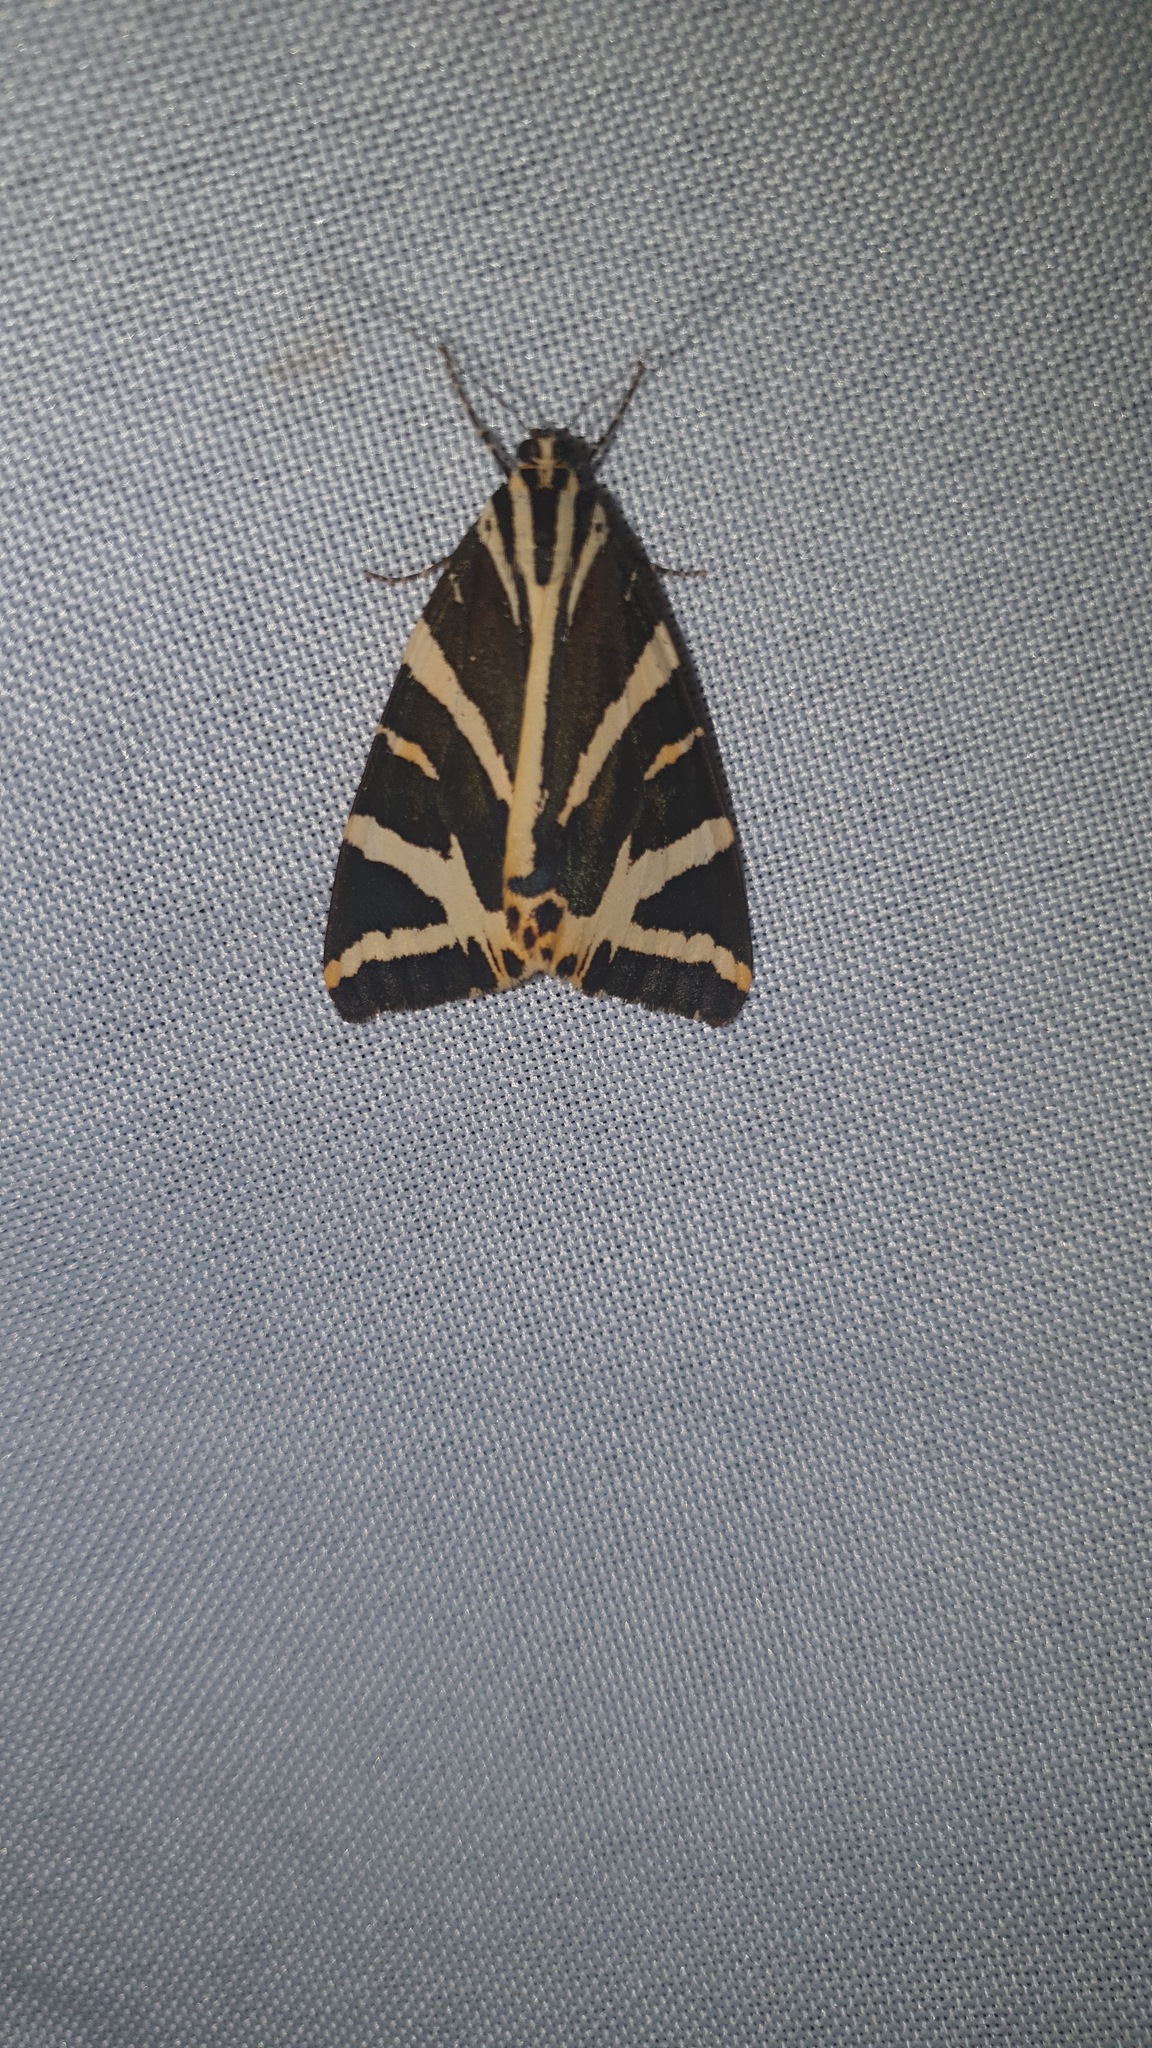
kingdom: Animalia
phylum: Arthropoda
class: Insecta
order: Lepidoptera
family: Erebidae
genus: Euplagia
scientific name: Euplagia quadripunctaria
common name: Jersey tiger
